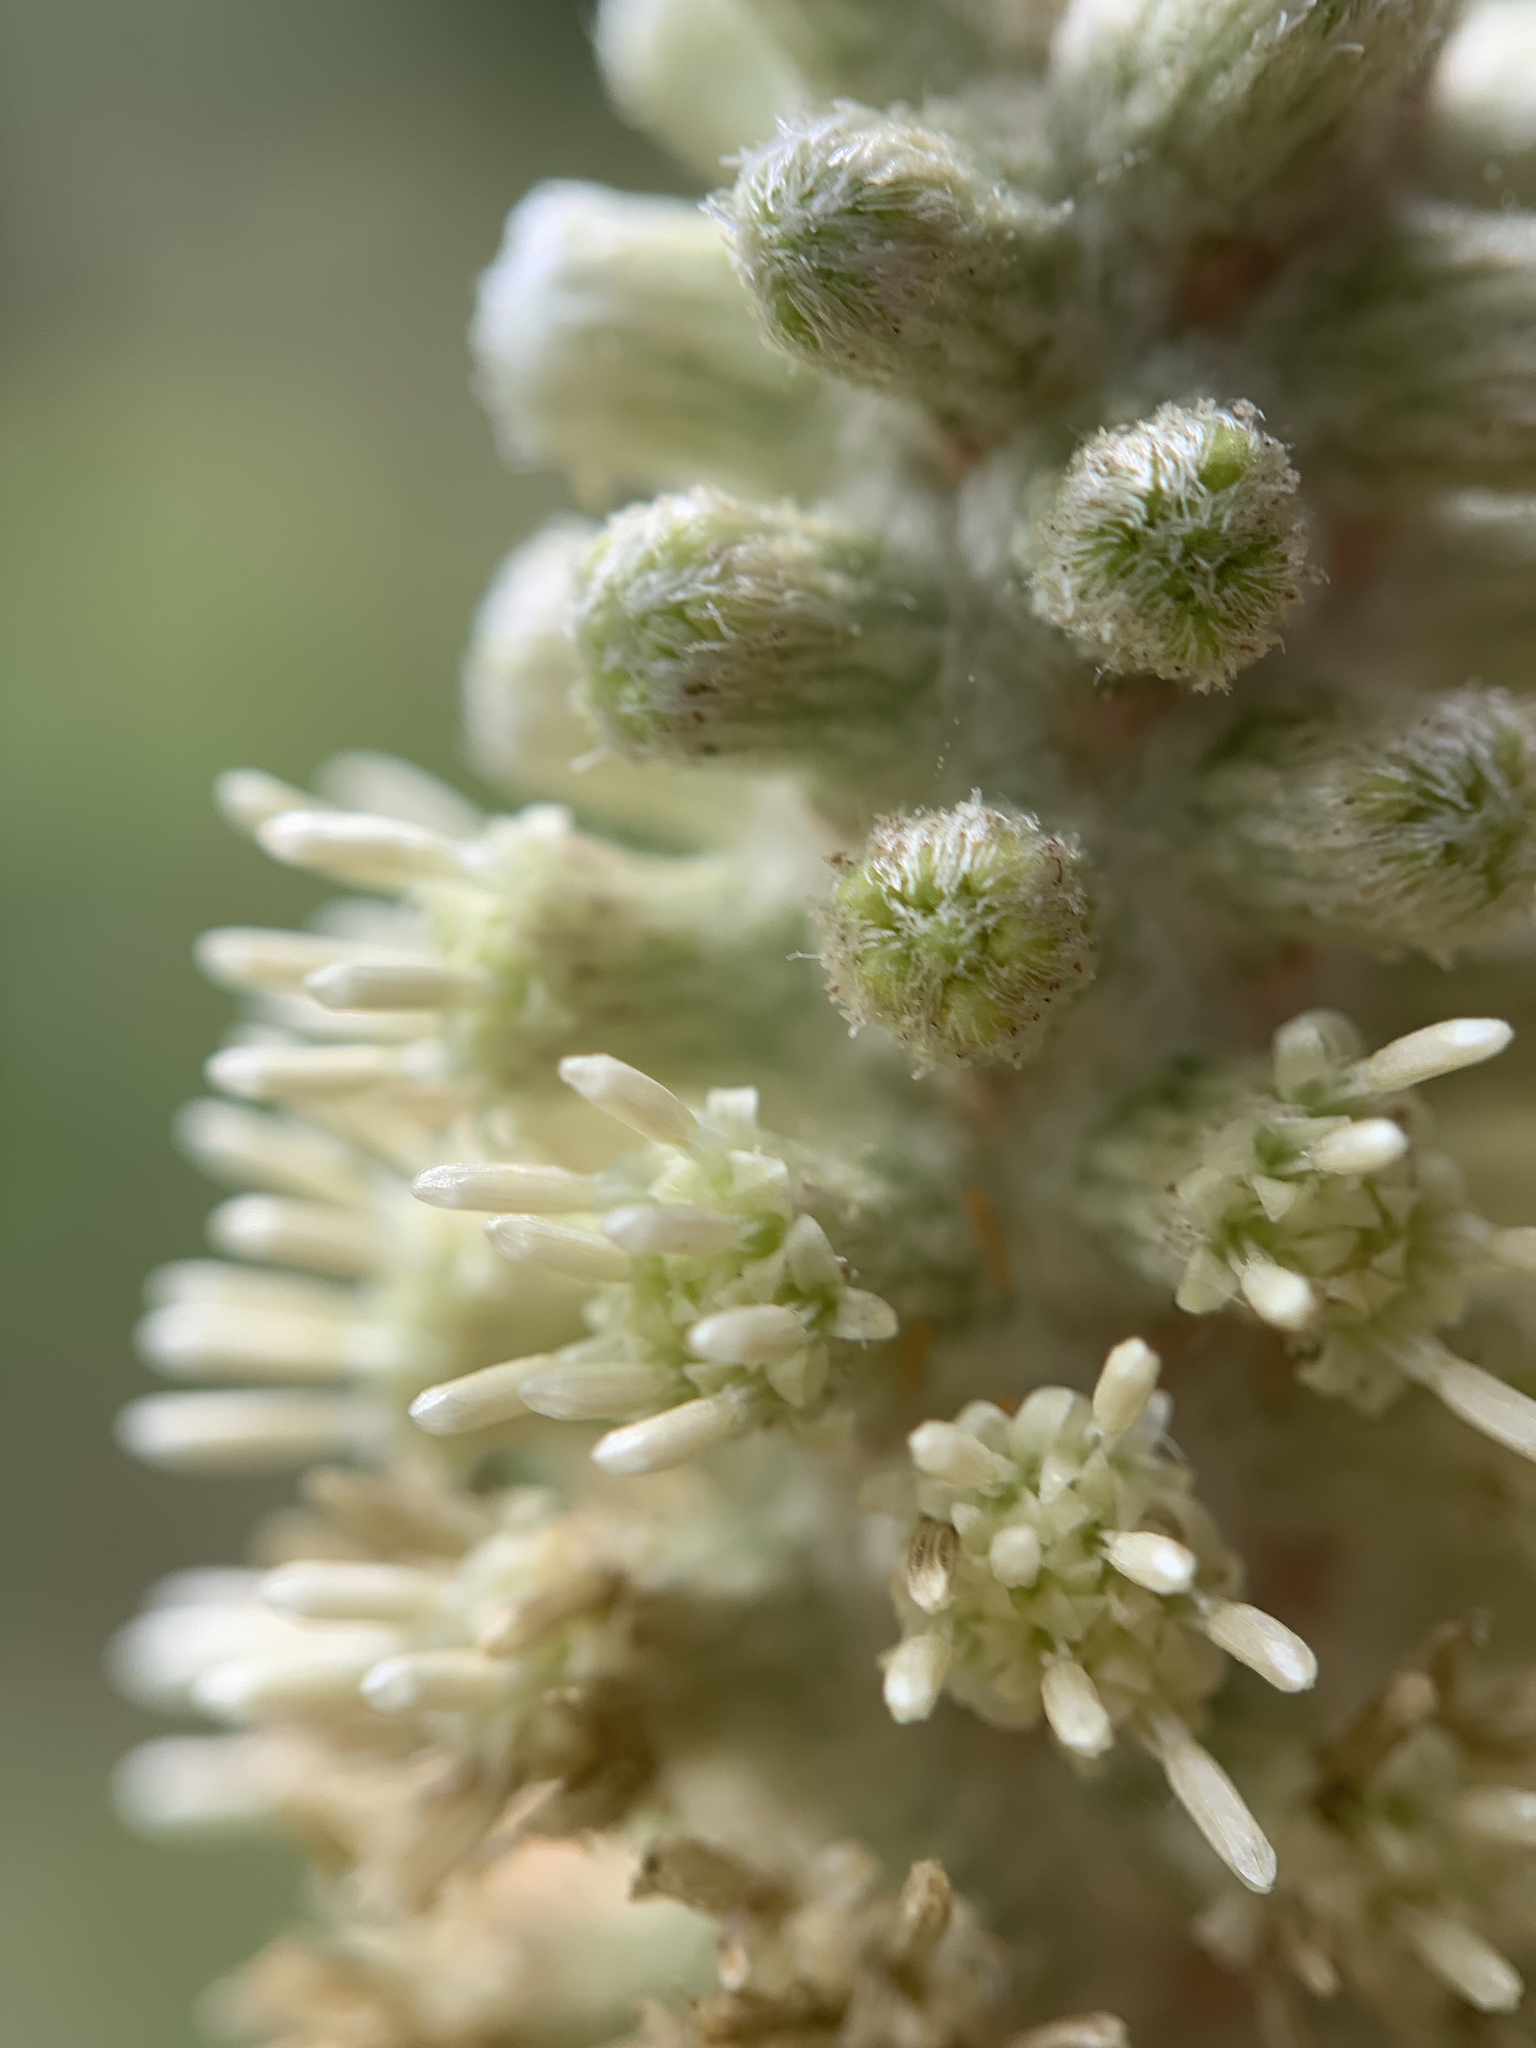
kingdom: Plantae
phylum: Tracheophyta
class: Magnoliopsida
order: Asterales
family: Asteraceae
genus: Pterocaulon
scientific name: Pterocaulon pycnostachyum
